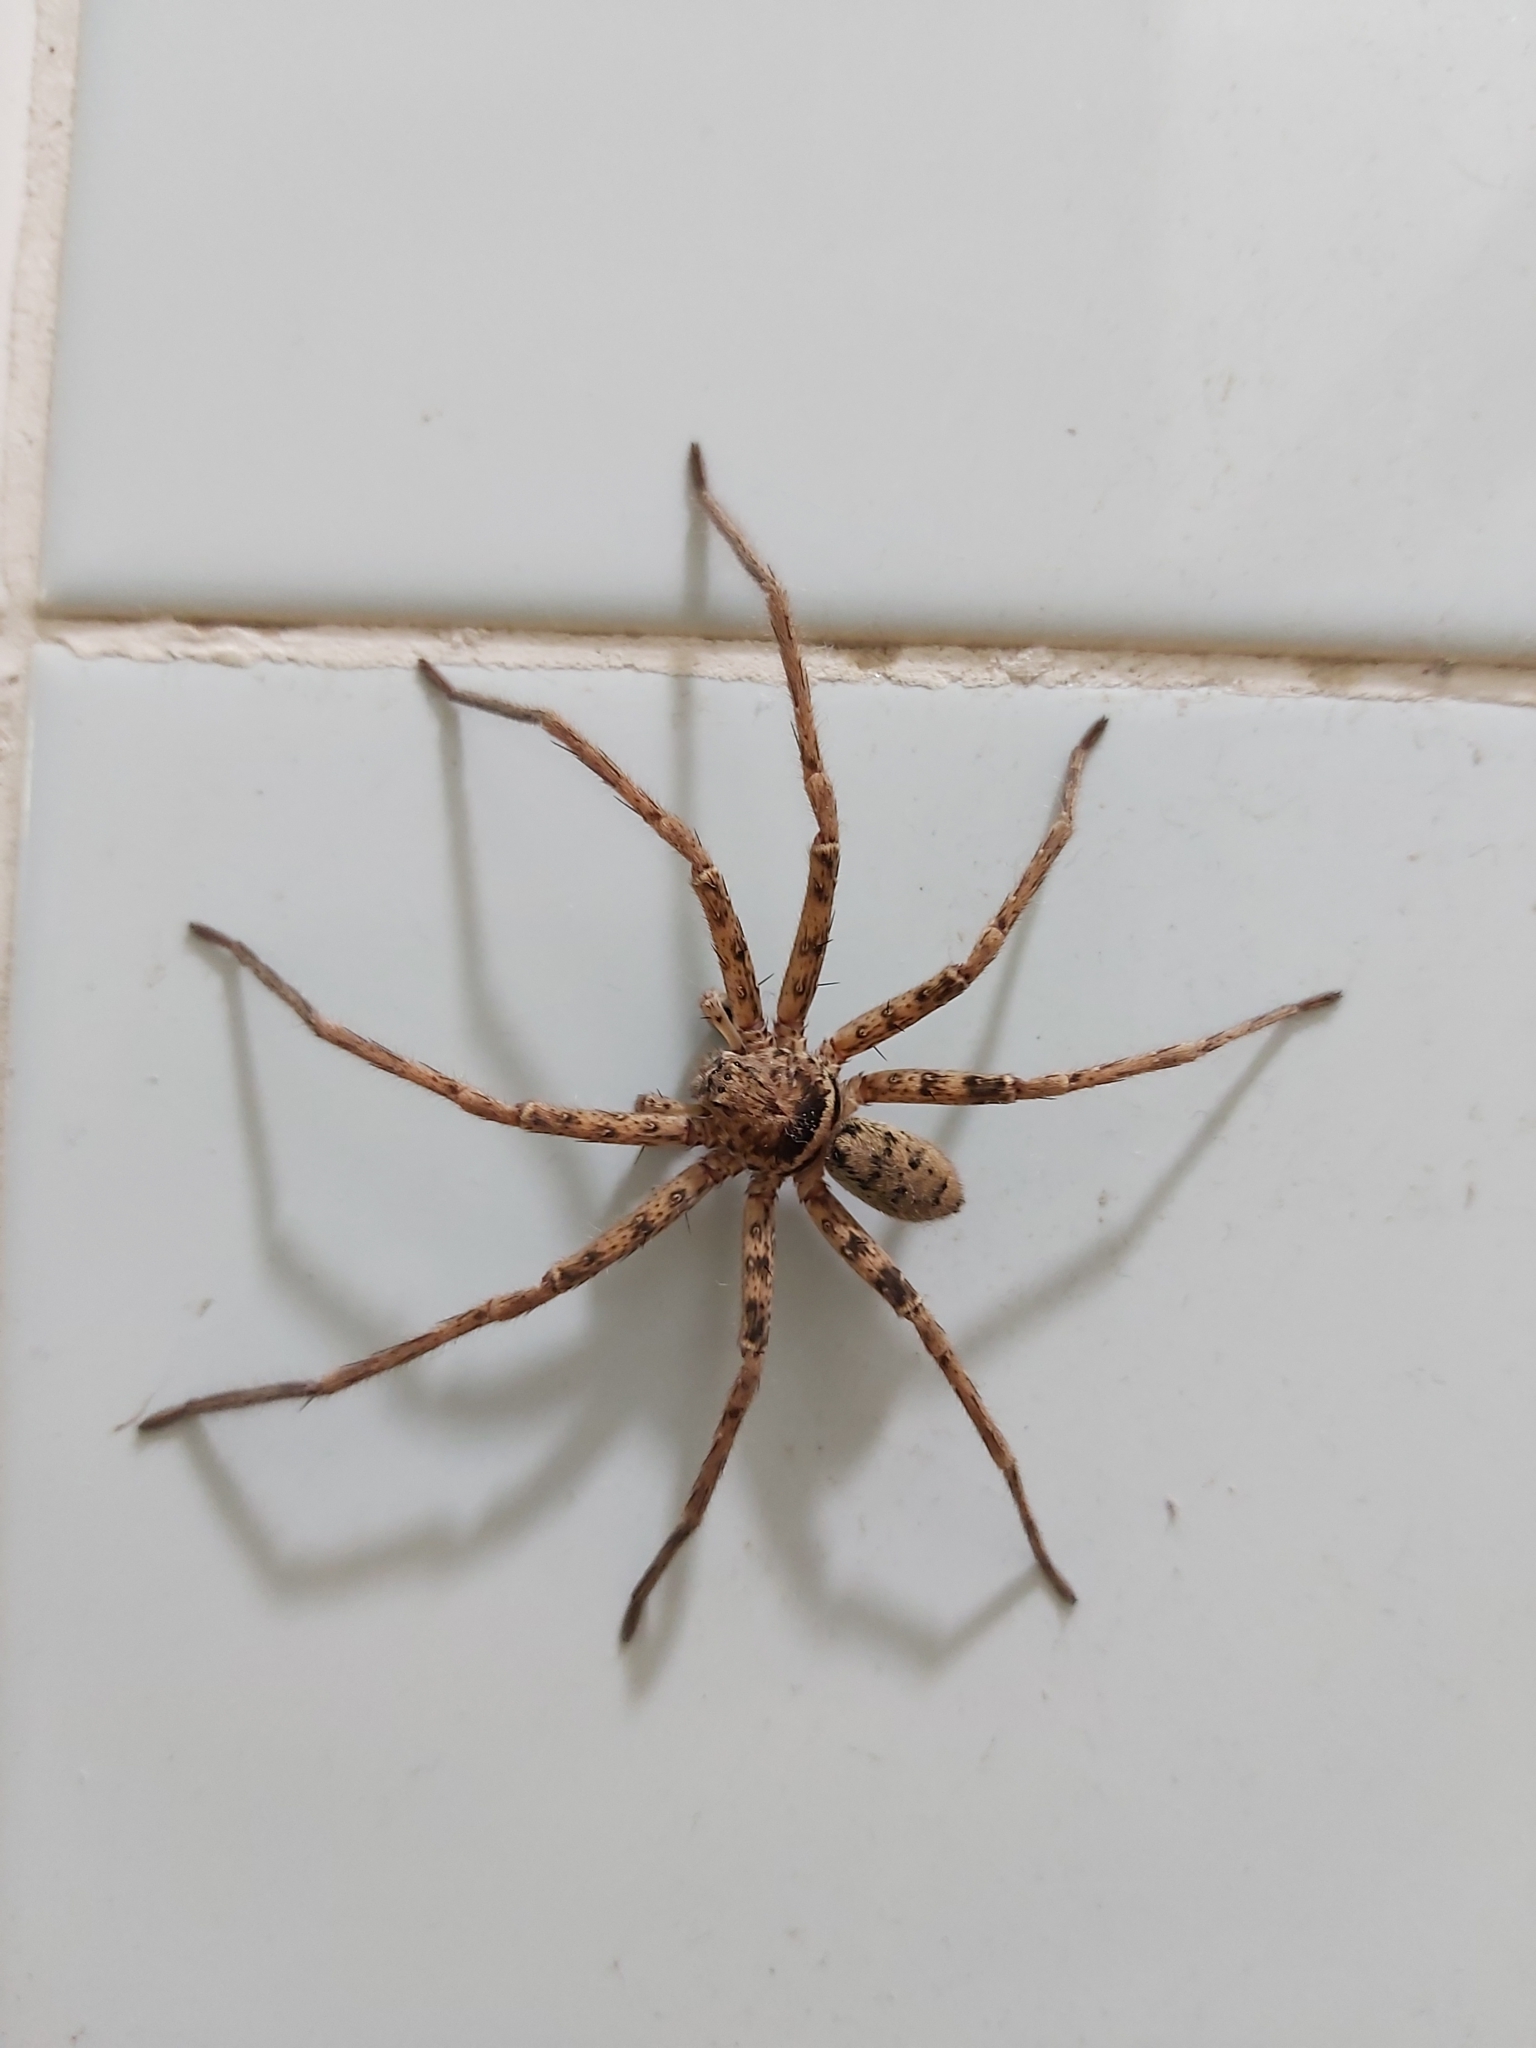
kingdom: Animalia
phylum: Arthropoda
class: Arachnida
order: Araneae
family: Sparassidae
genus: Heteropoda
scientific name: Heteropoda jugulans
